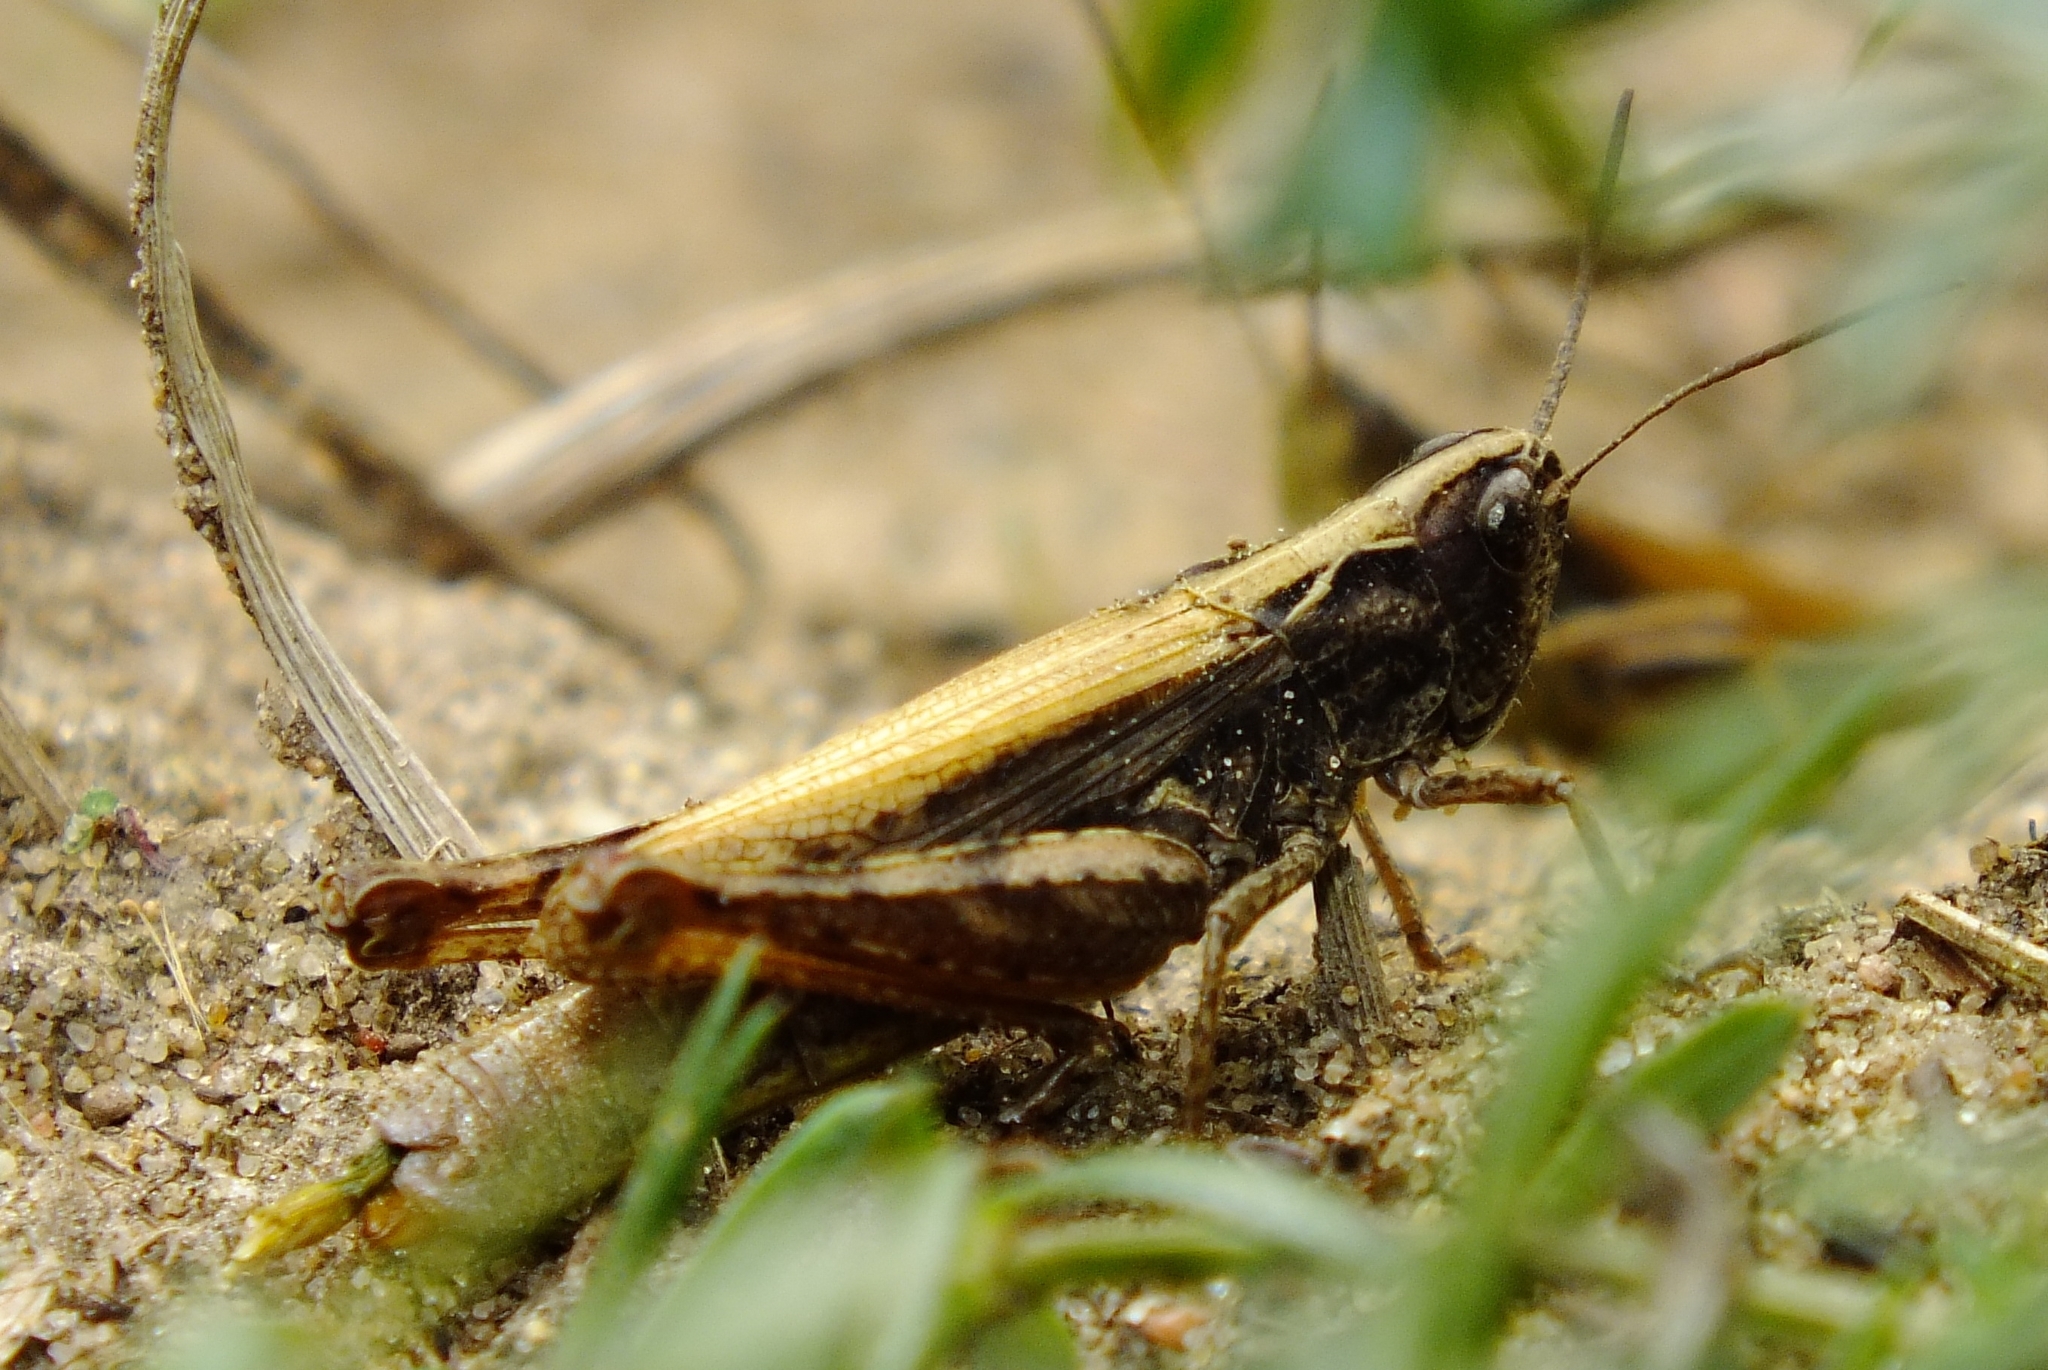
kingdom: Animalia
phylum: Arthropoda
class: Insecta
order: Orthoptera
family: Acrididae
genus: Chorthippus
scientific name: Chorthippus apricarius
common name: Upland field grasshopper
